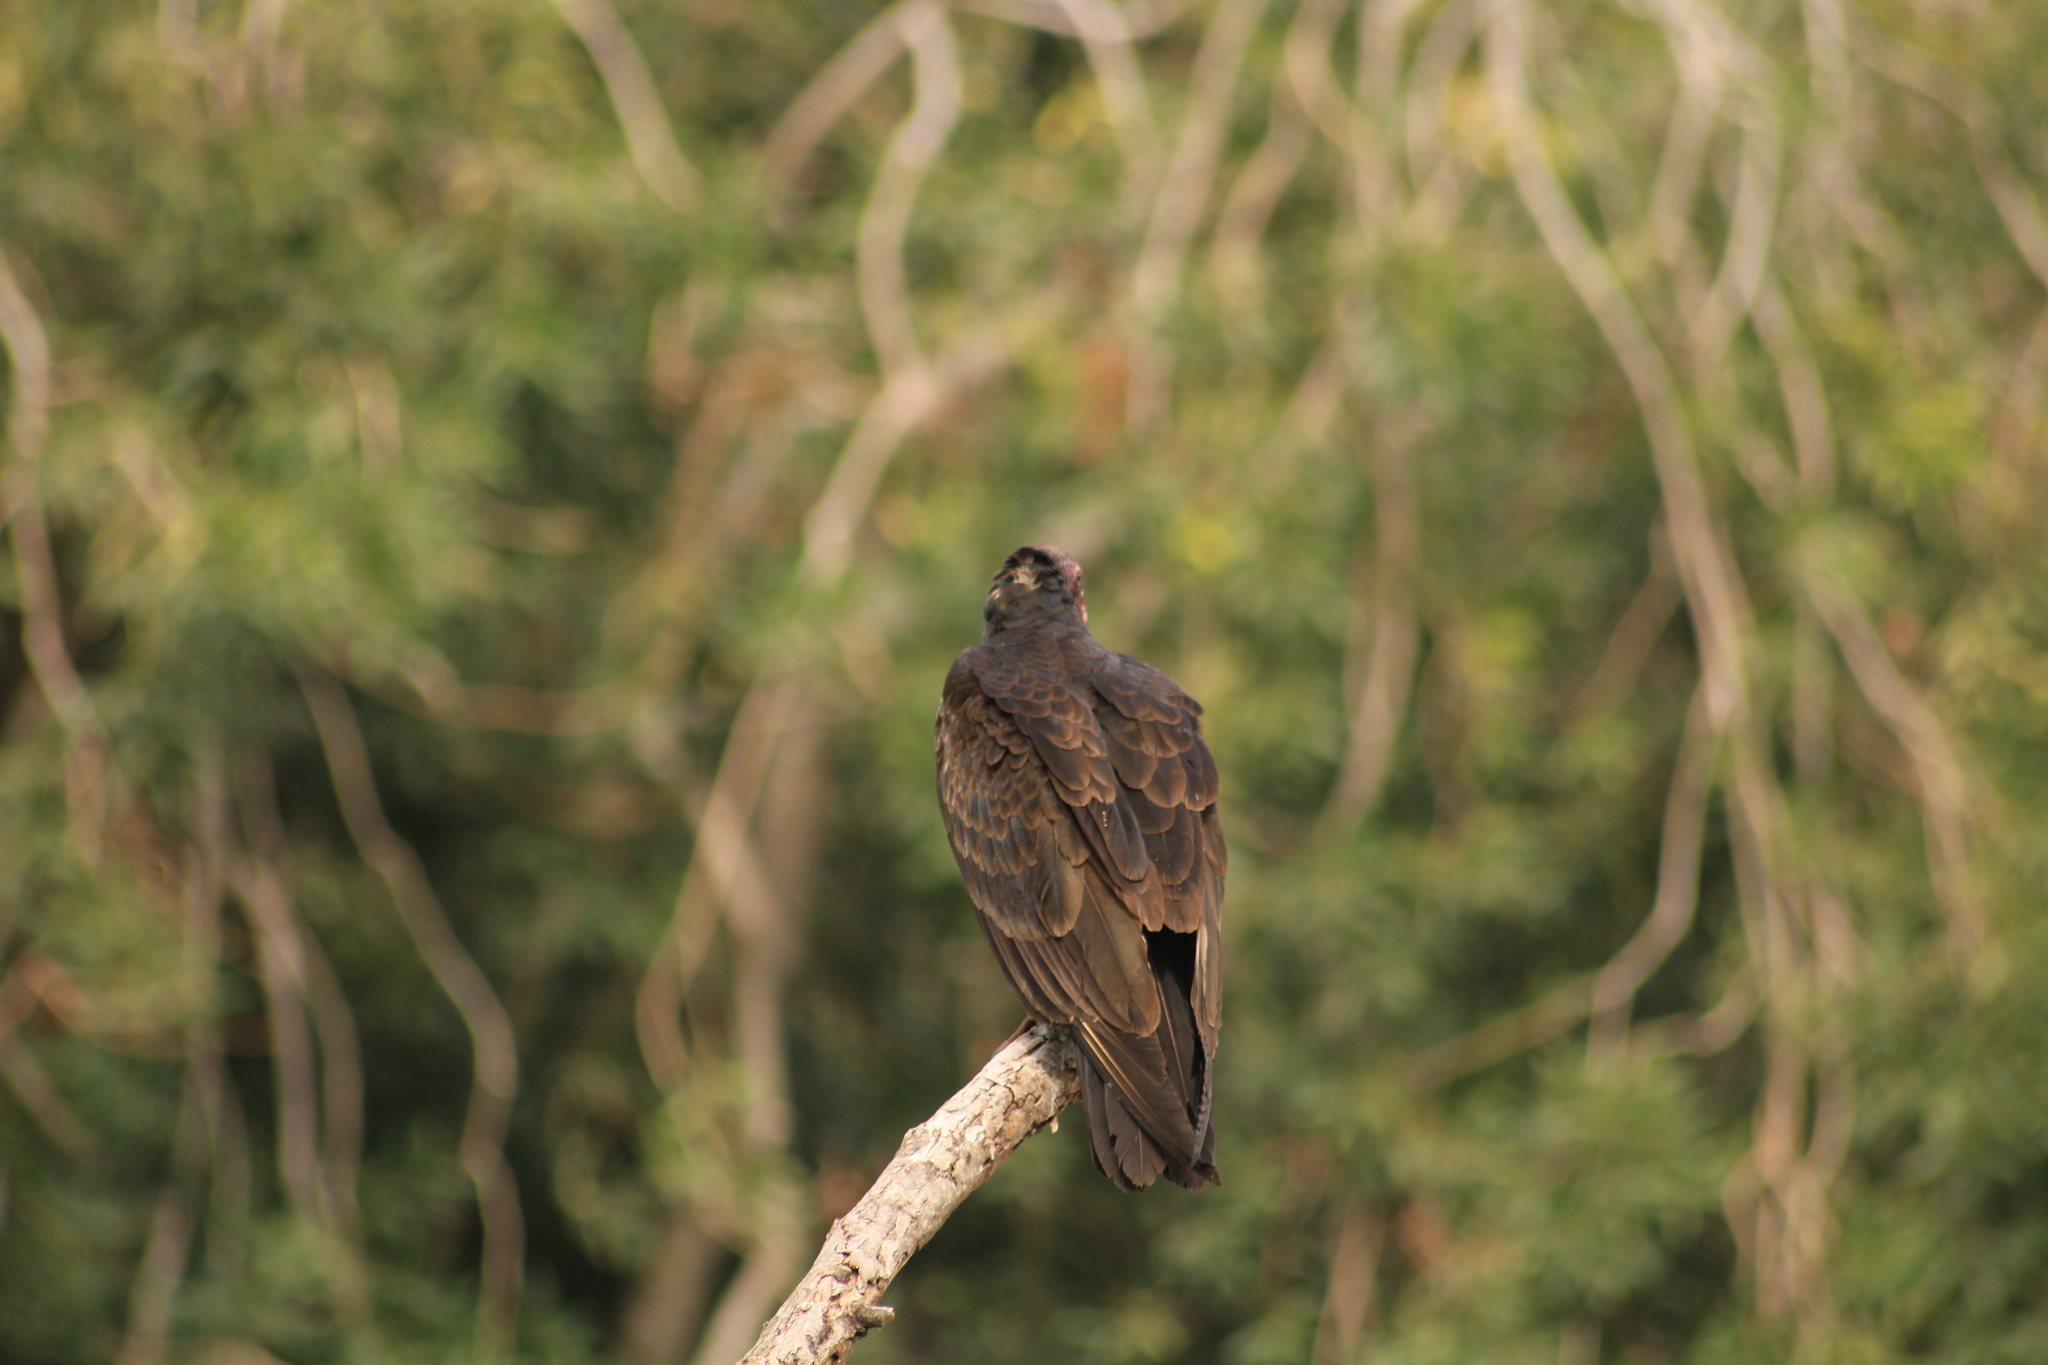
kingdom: Animalia
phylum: Chordata
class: Aves
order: Accipitriformes
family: Cathartidae
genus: Cathartes
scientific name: Cathartes aura
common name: Turkey vulture
